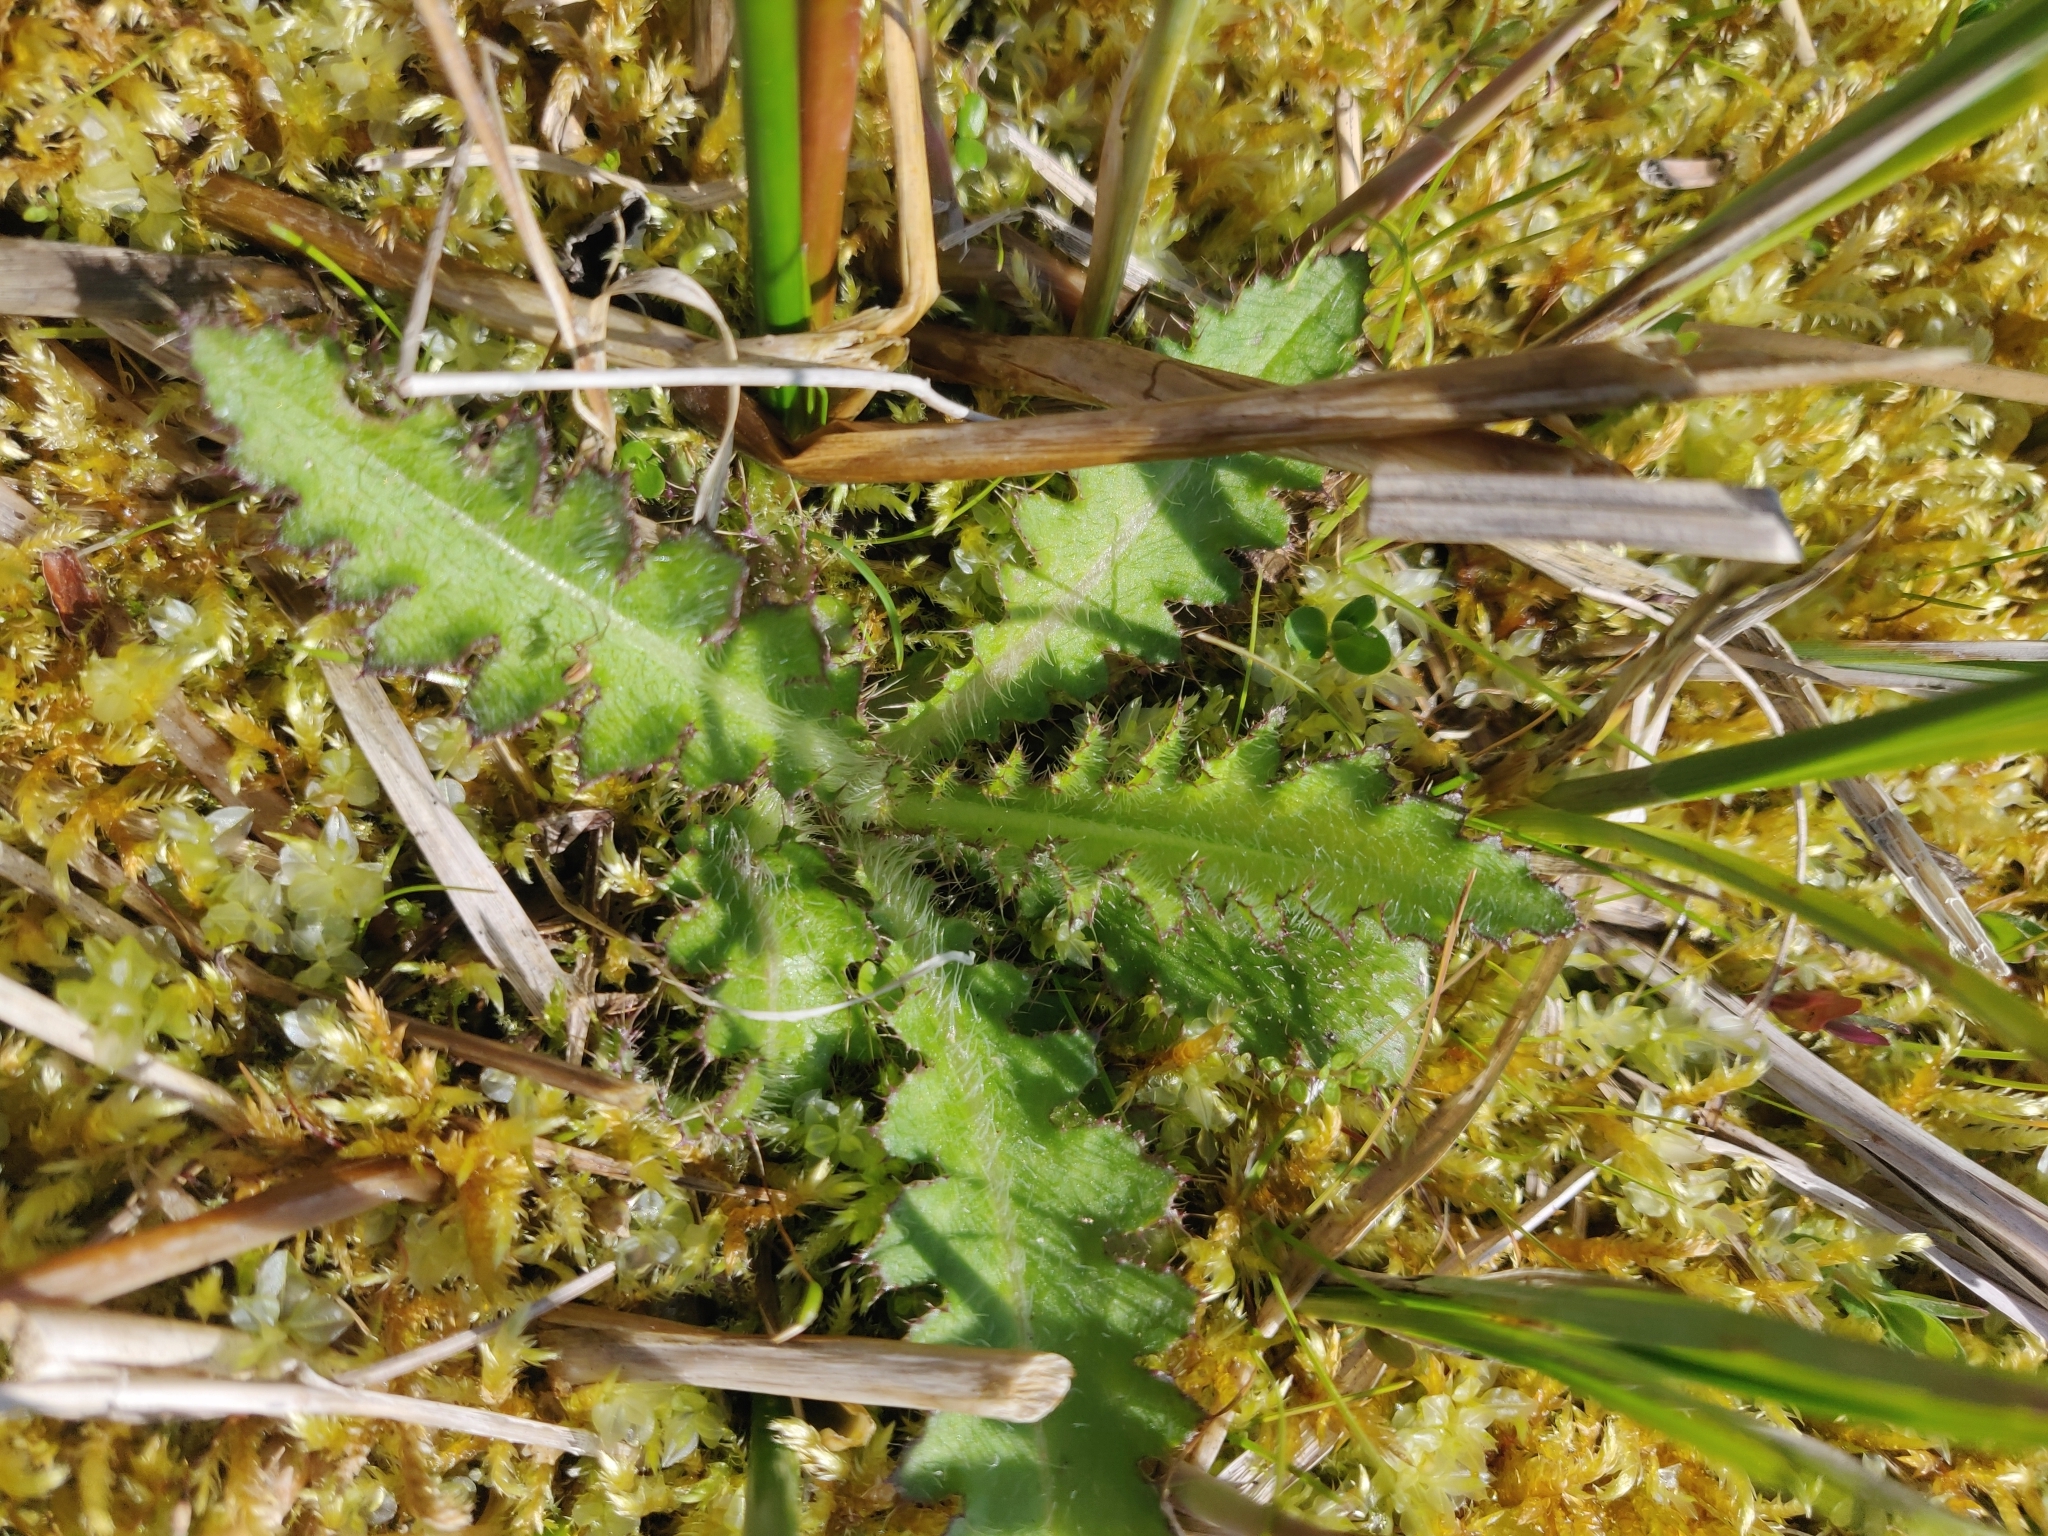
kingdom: Plantae
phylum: Tracheophyta
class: Magnoliopsida
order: Asterales
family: Asteraceae
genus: Cirsium
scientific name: Cirsium palustre
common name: Marsh thistle
